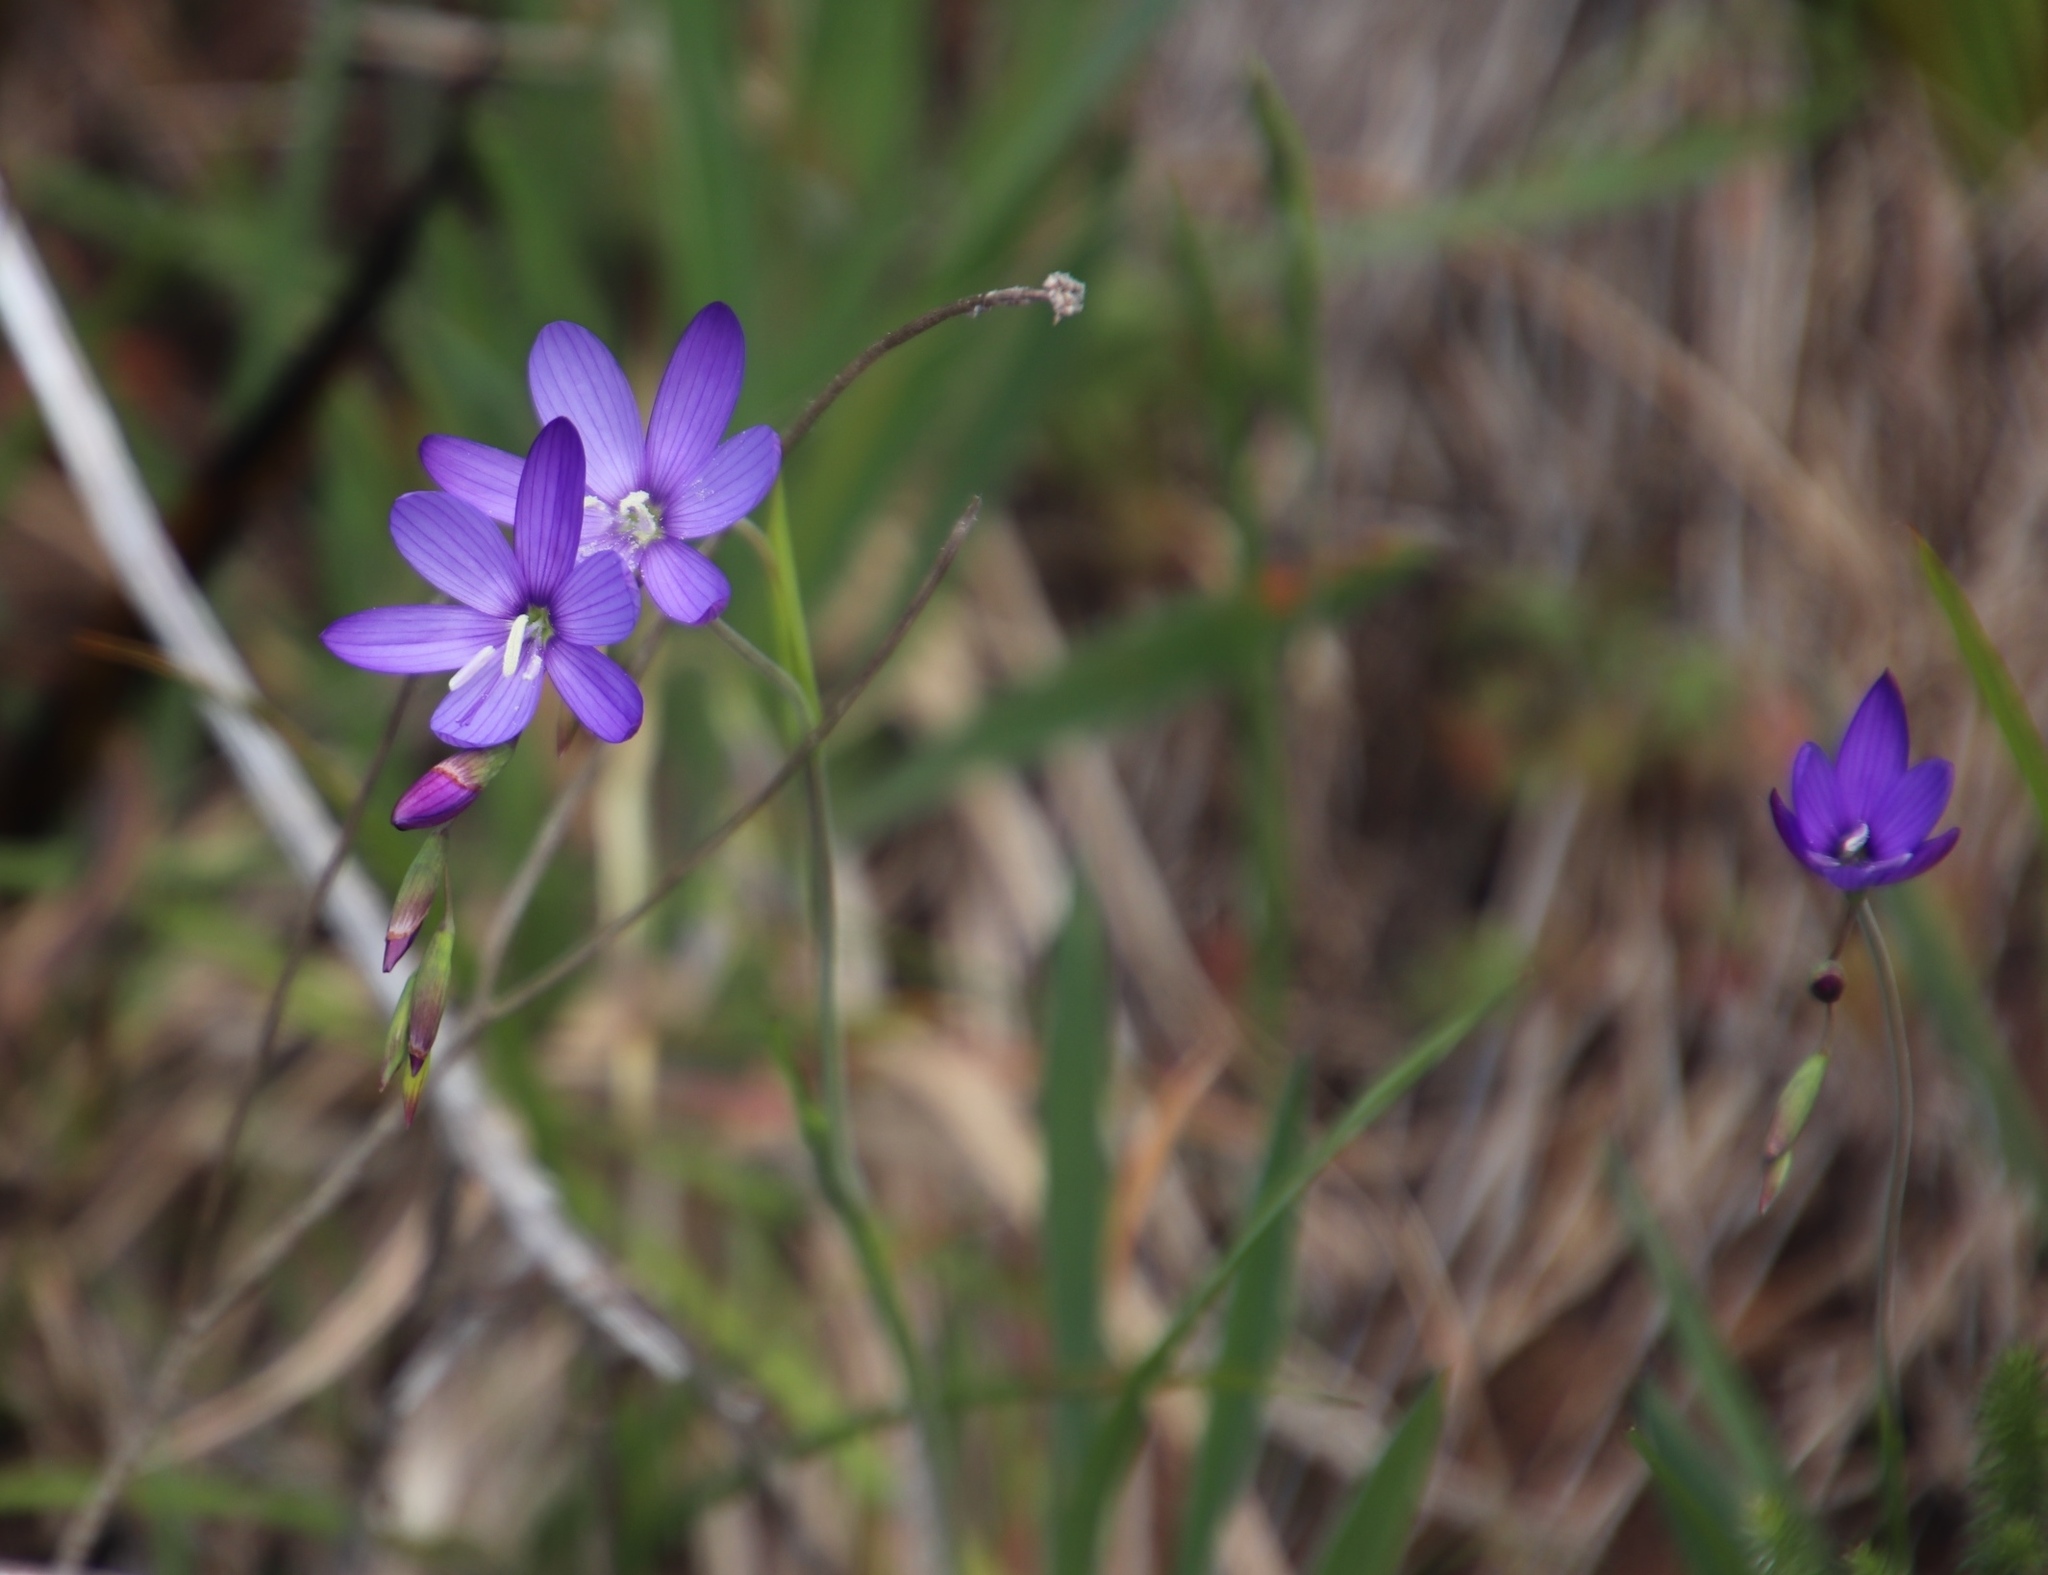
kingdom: Plantae
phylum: Tracheophyta
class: Liliopsida
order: Asparagales
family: Iridaceae
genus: Geissorhiza
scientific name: Geissorhiza aspera
